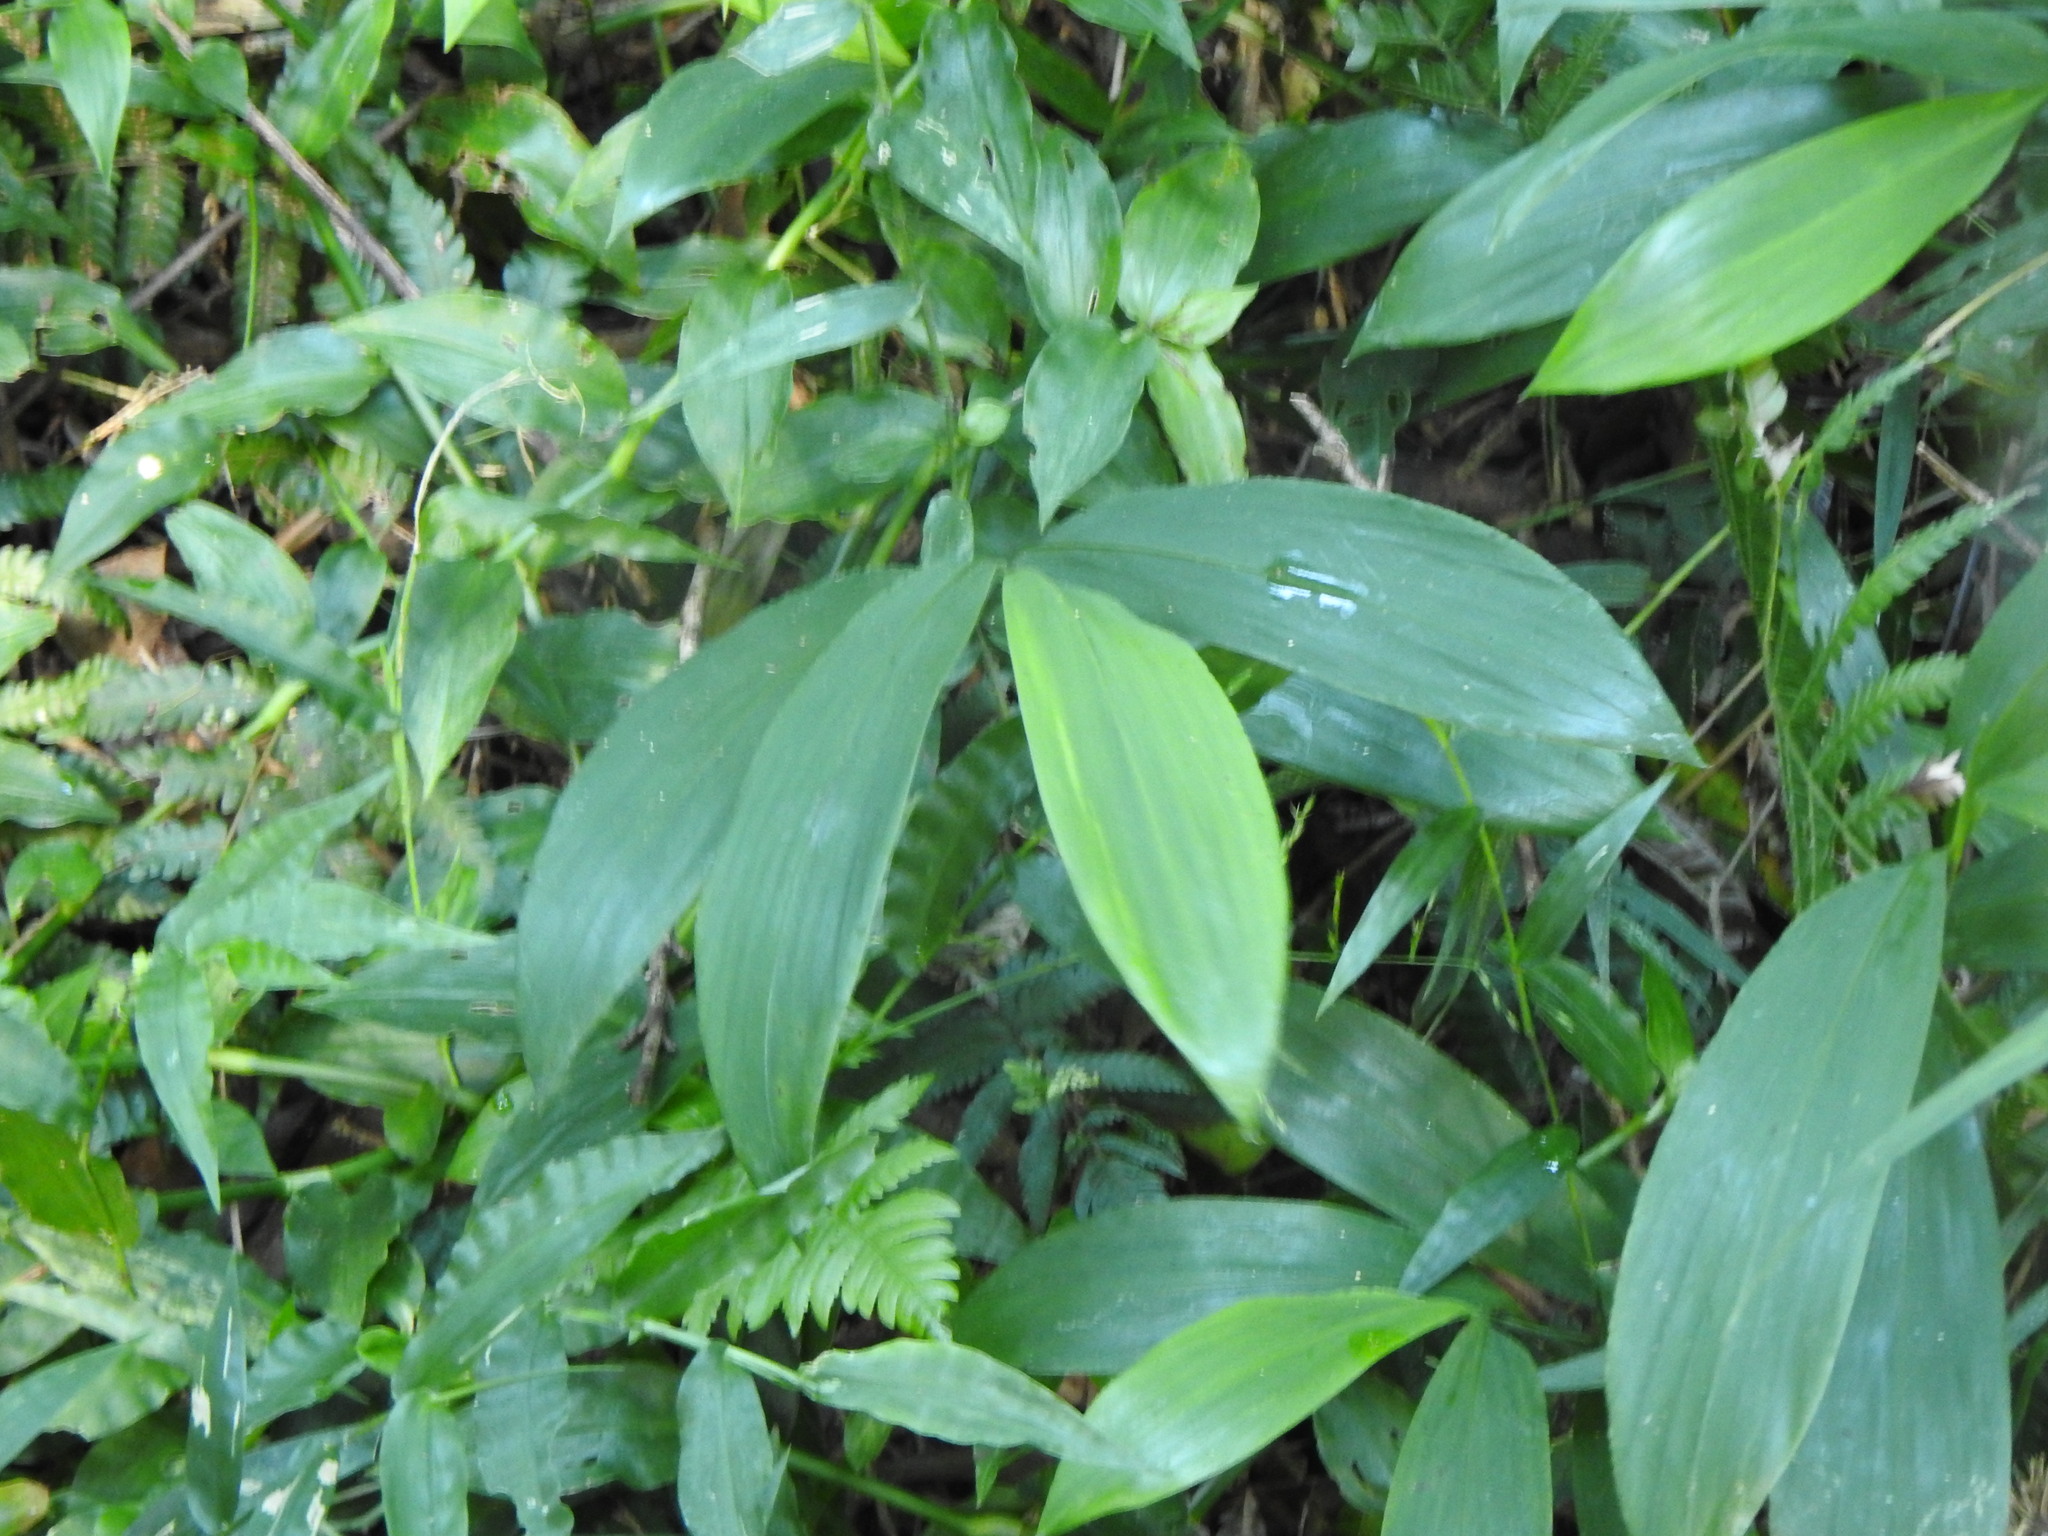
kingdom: Plantae
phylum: Tracheophyta
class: Liliopsida
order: Poales
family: Poaceae
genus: Pharus
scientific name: Pharus lappulaceus
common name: Creeping leafstalk grass
